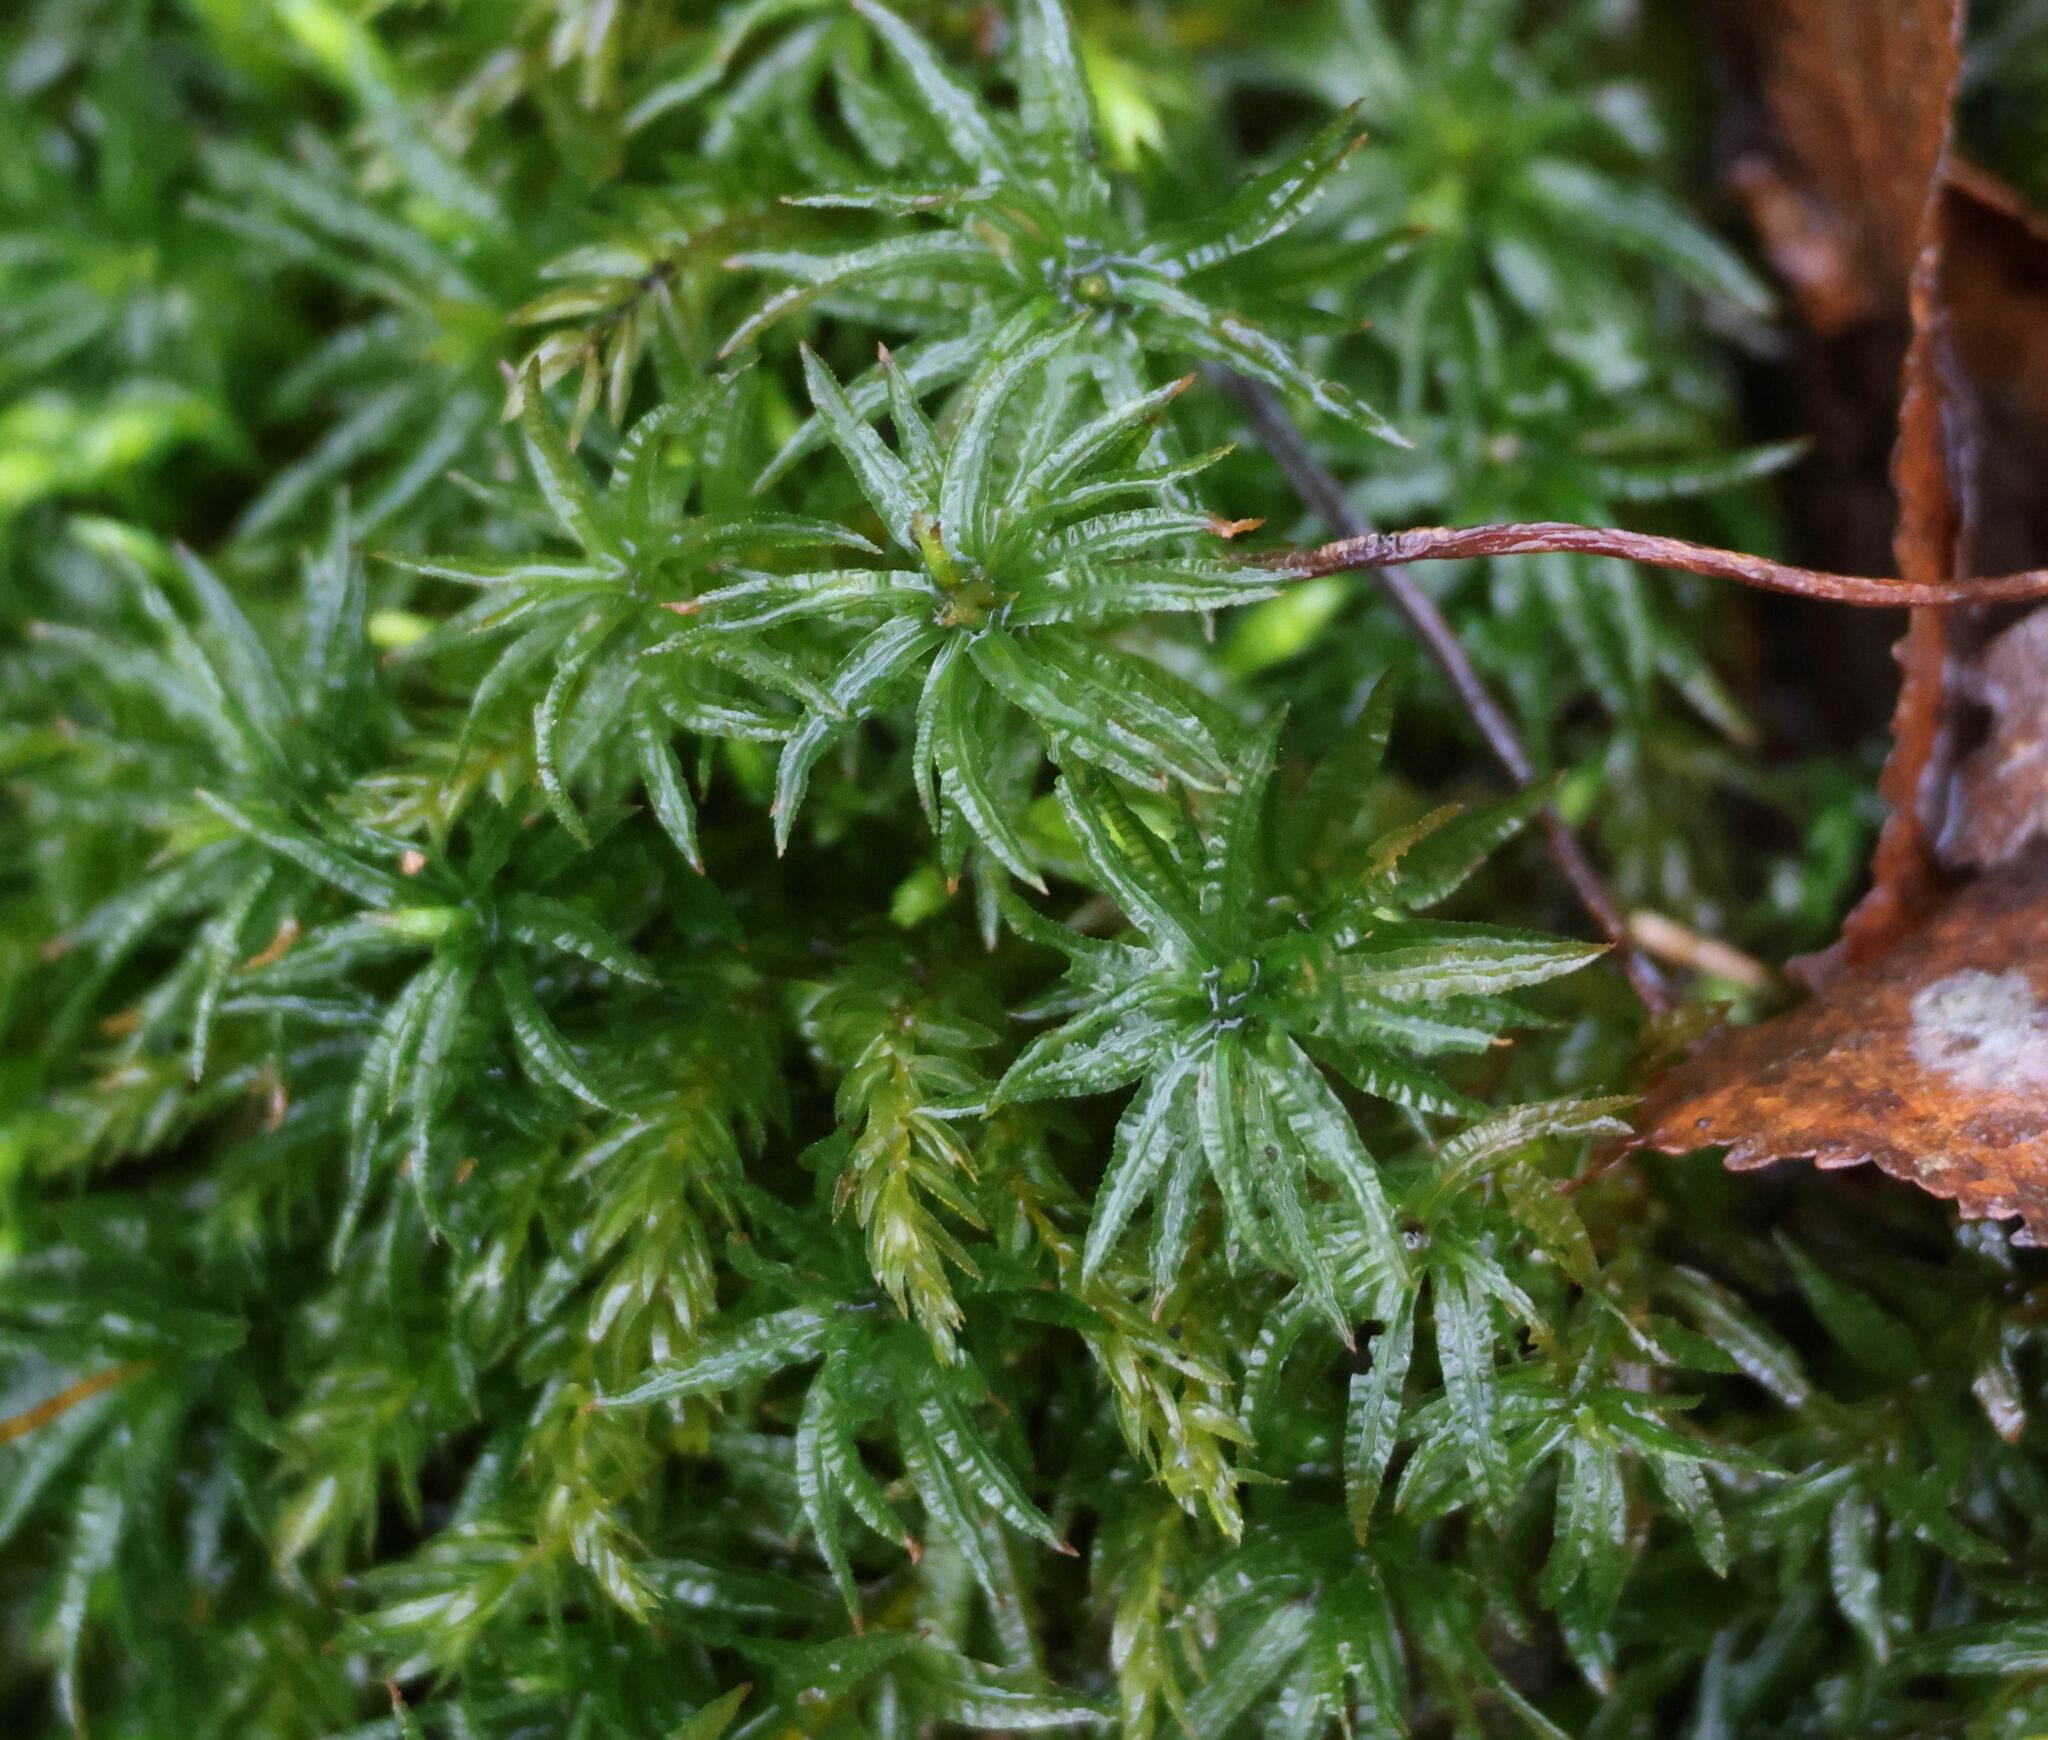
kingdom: Plantae
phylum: Bryophyta
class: Polytrichopsida
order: Polytrichales
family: Polytrichaceae
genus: Atrichum
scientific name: Atrichum undulatum
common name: Common smoothcap
